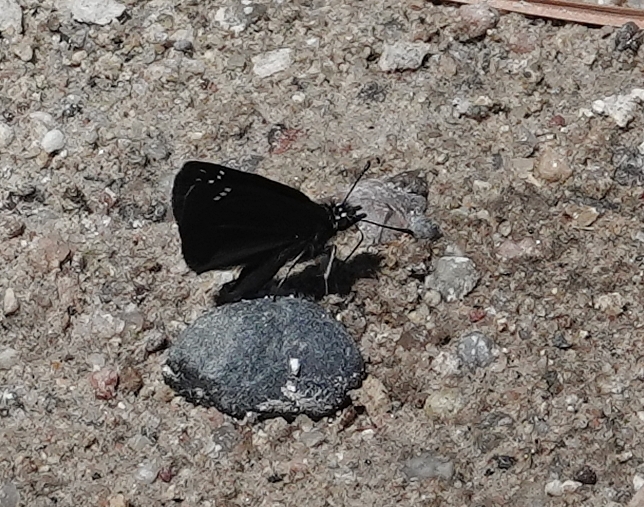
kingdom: Animalia
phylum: Arthropoda
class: Insecta
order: Lepidoptera
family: Hesperiidae
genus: Pholisora
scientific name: Pholisora catullus
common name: Common sootywing
